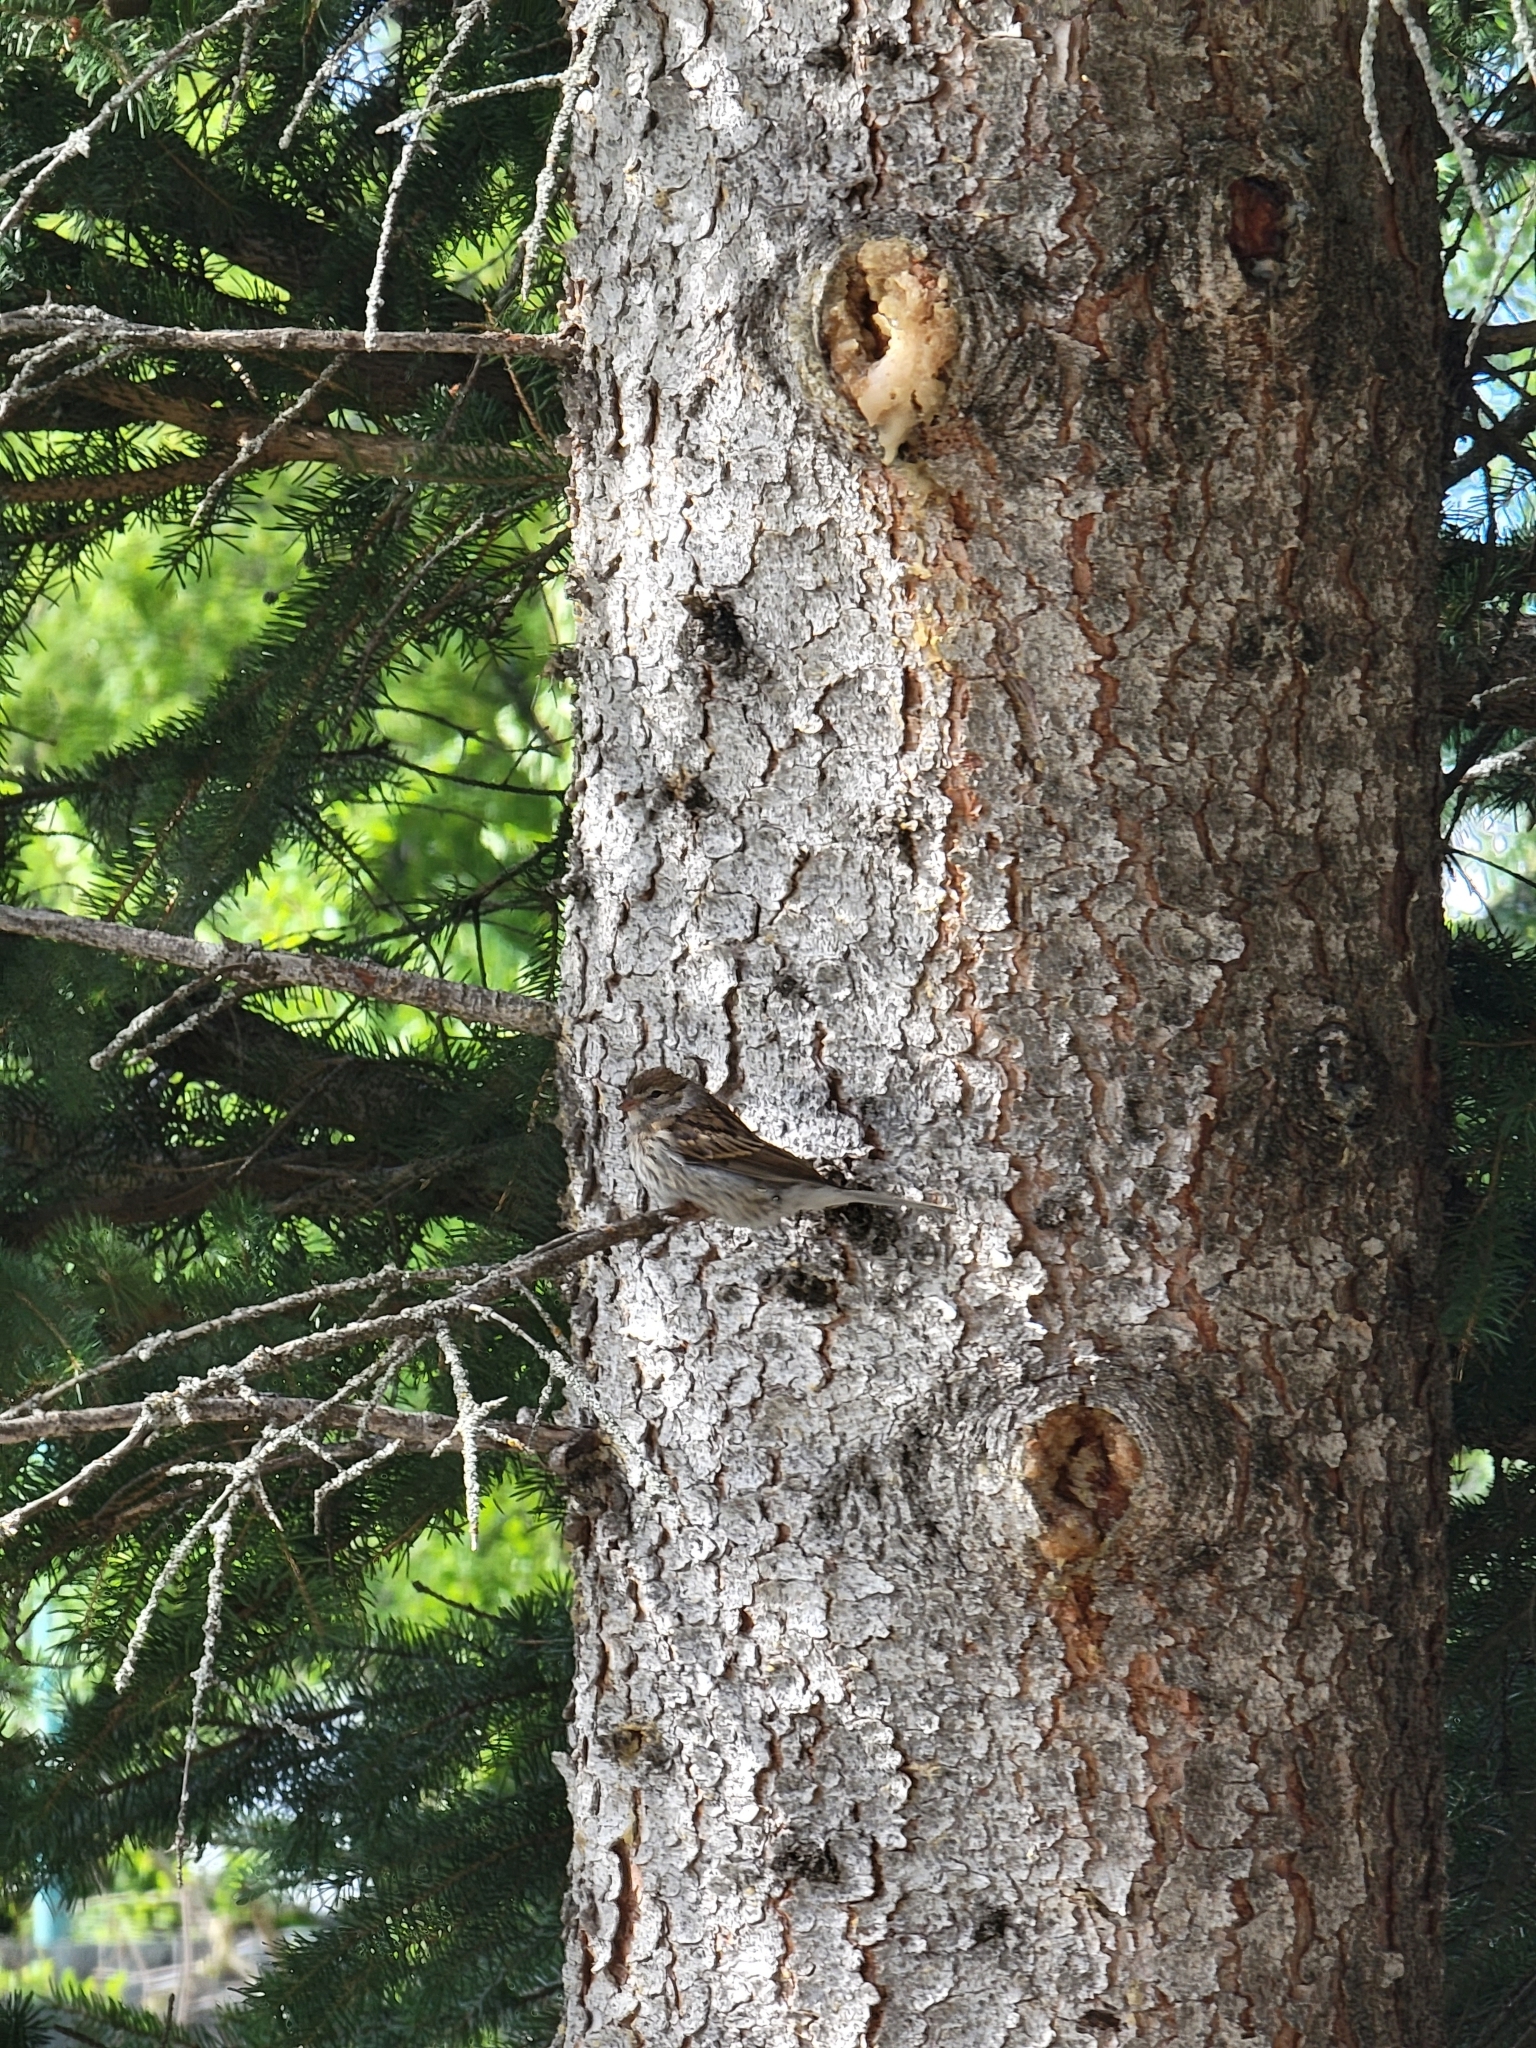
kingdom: Animalia
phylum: Chordata
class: Aves
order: Passeriformes
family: Passerellidae
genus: Spizella
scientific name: Spizella passerina
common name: Chipping sparrow
